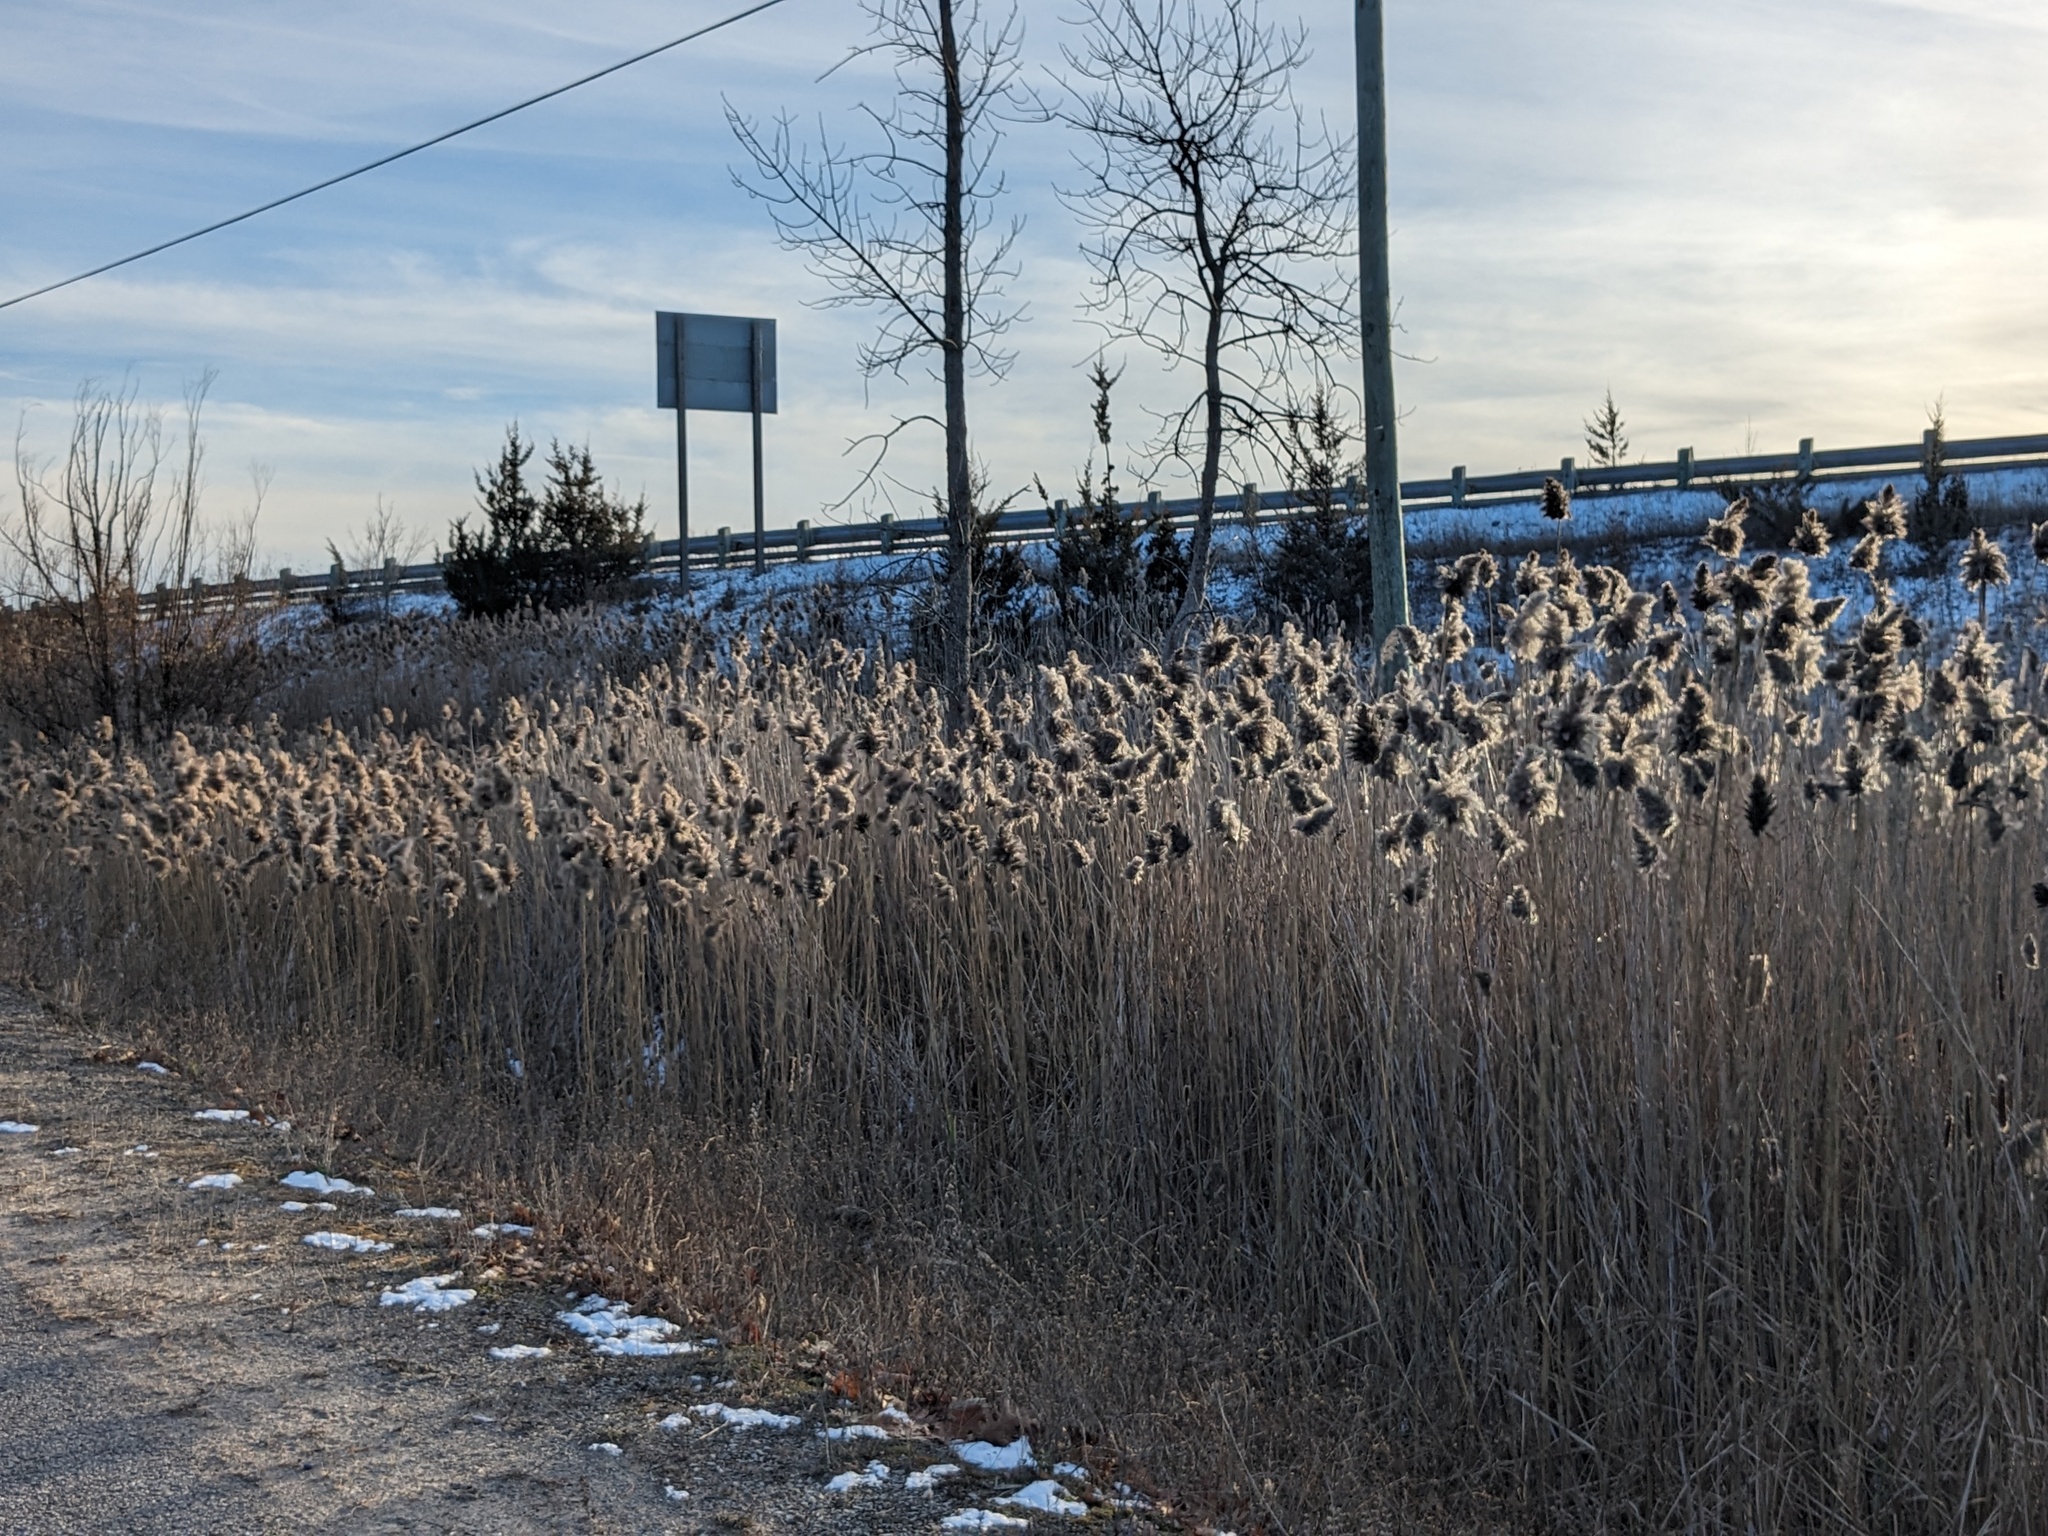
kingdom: Plantae
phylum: Tracheophyta
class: Liliopsida
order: Poales
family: Poaceae
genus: Phragmites
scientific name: Phragmites australis
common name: Common reed
